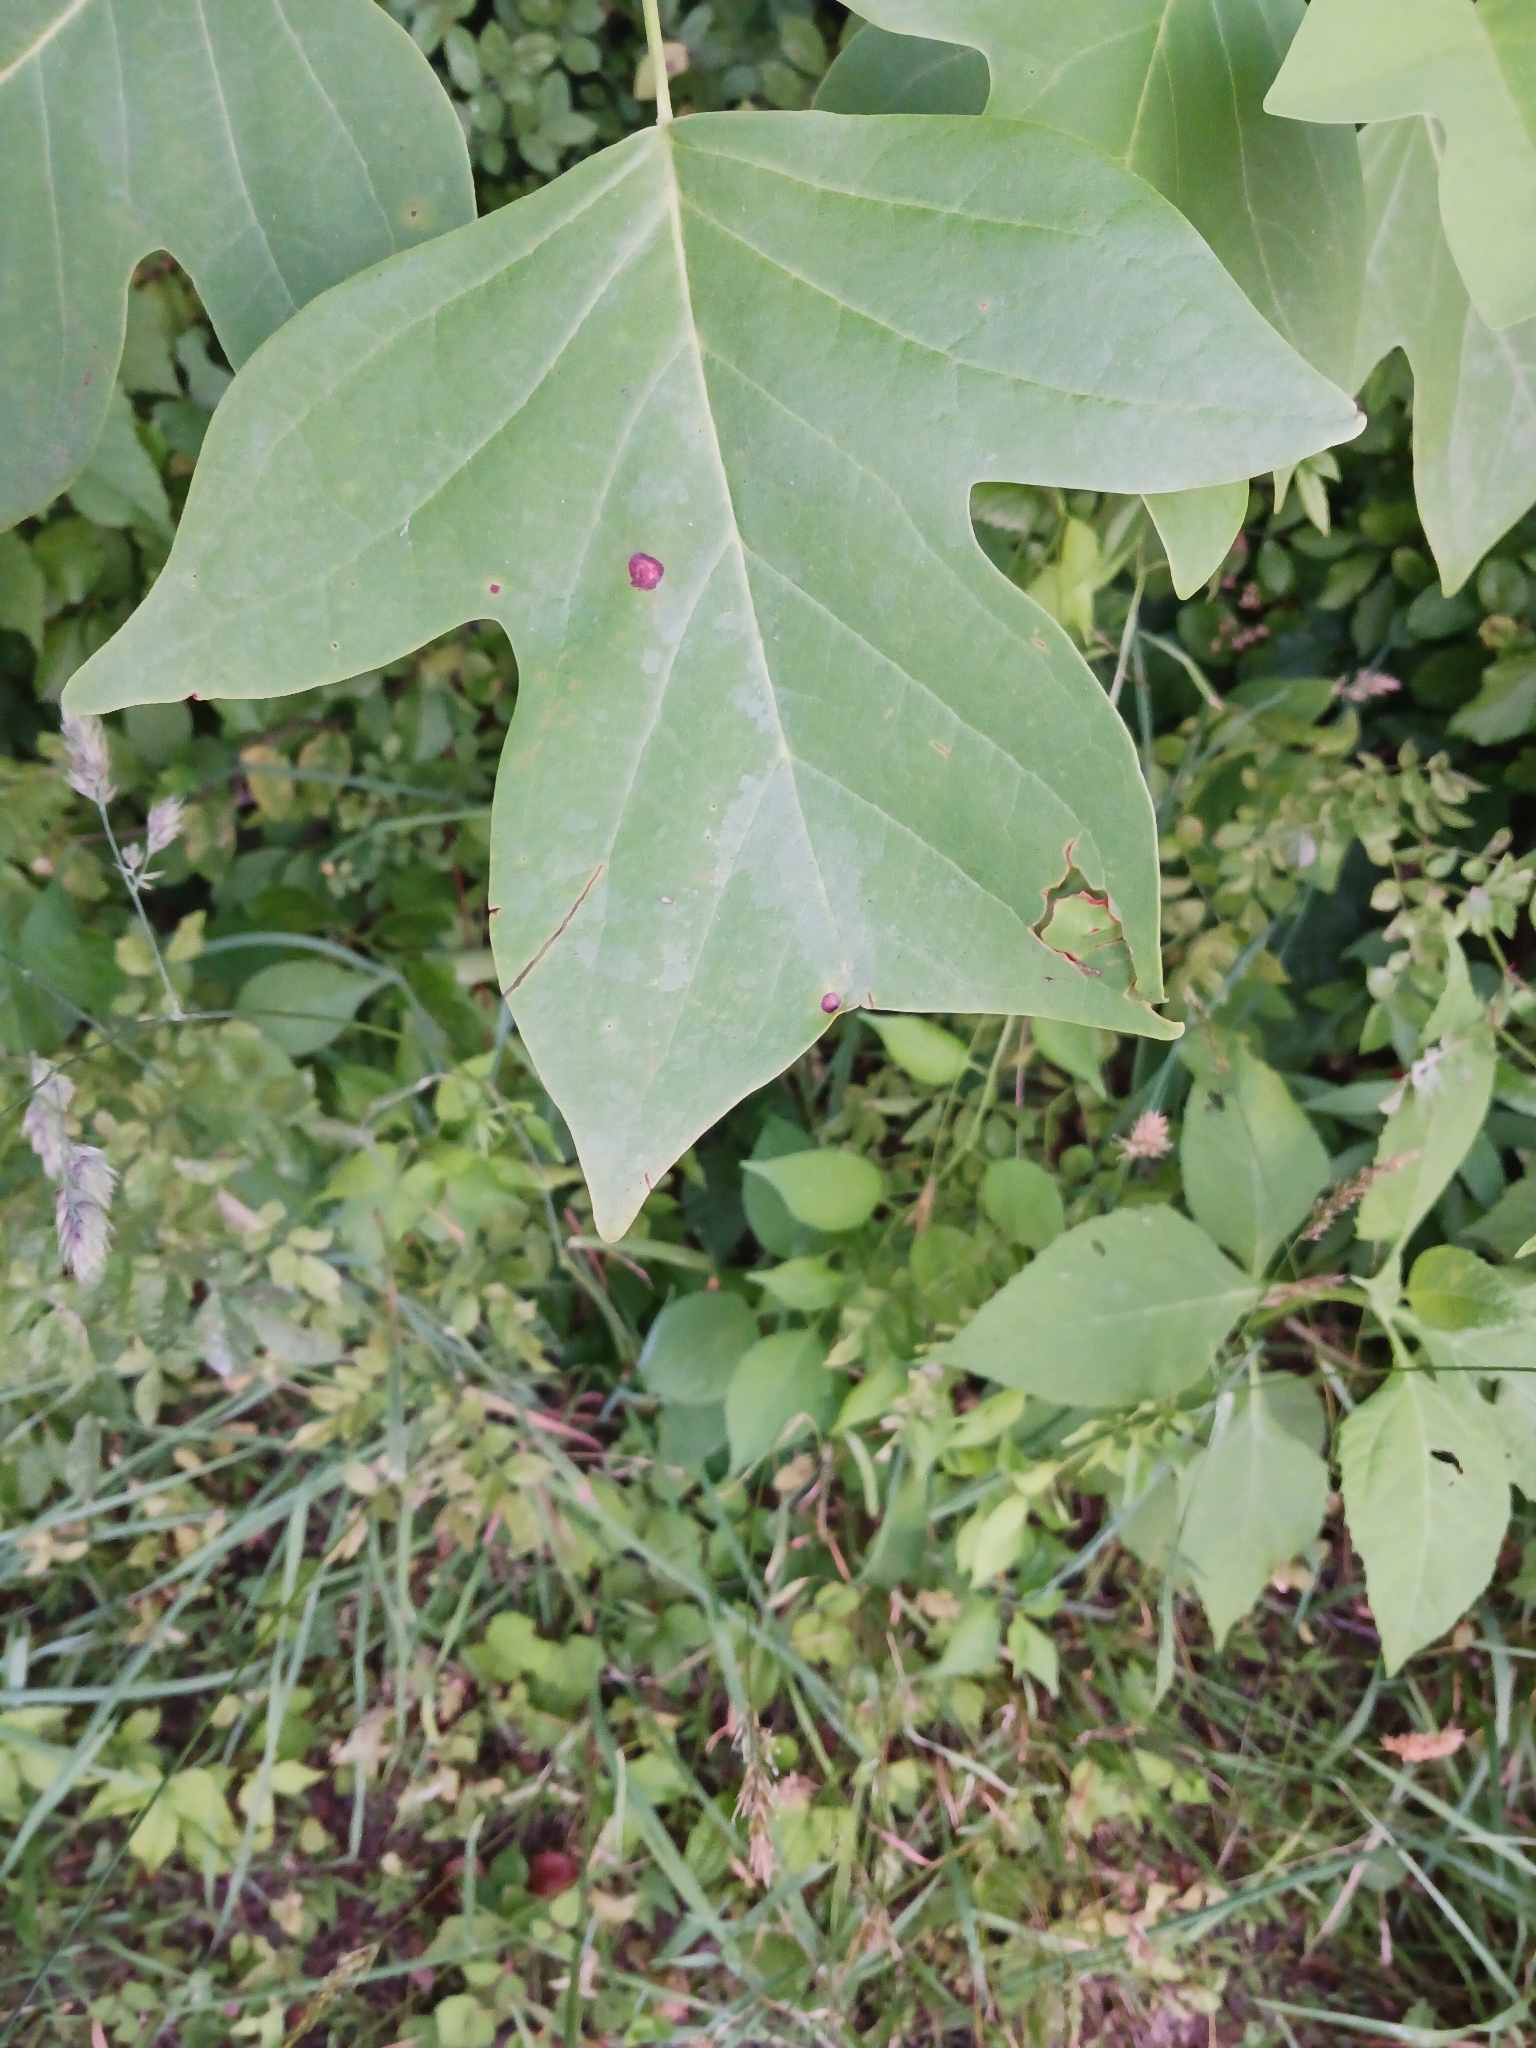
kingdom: Plantae
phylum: Tracheophyta
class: Magnoliopsida
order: Magnoliales
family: Magnoliaceae
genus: Liriodendron
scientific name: Liriodendron tulipifera
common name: Tulip tree
